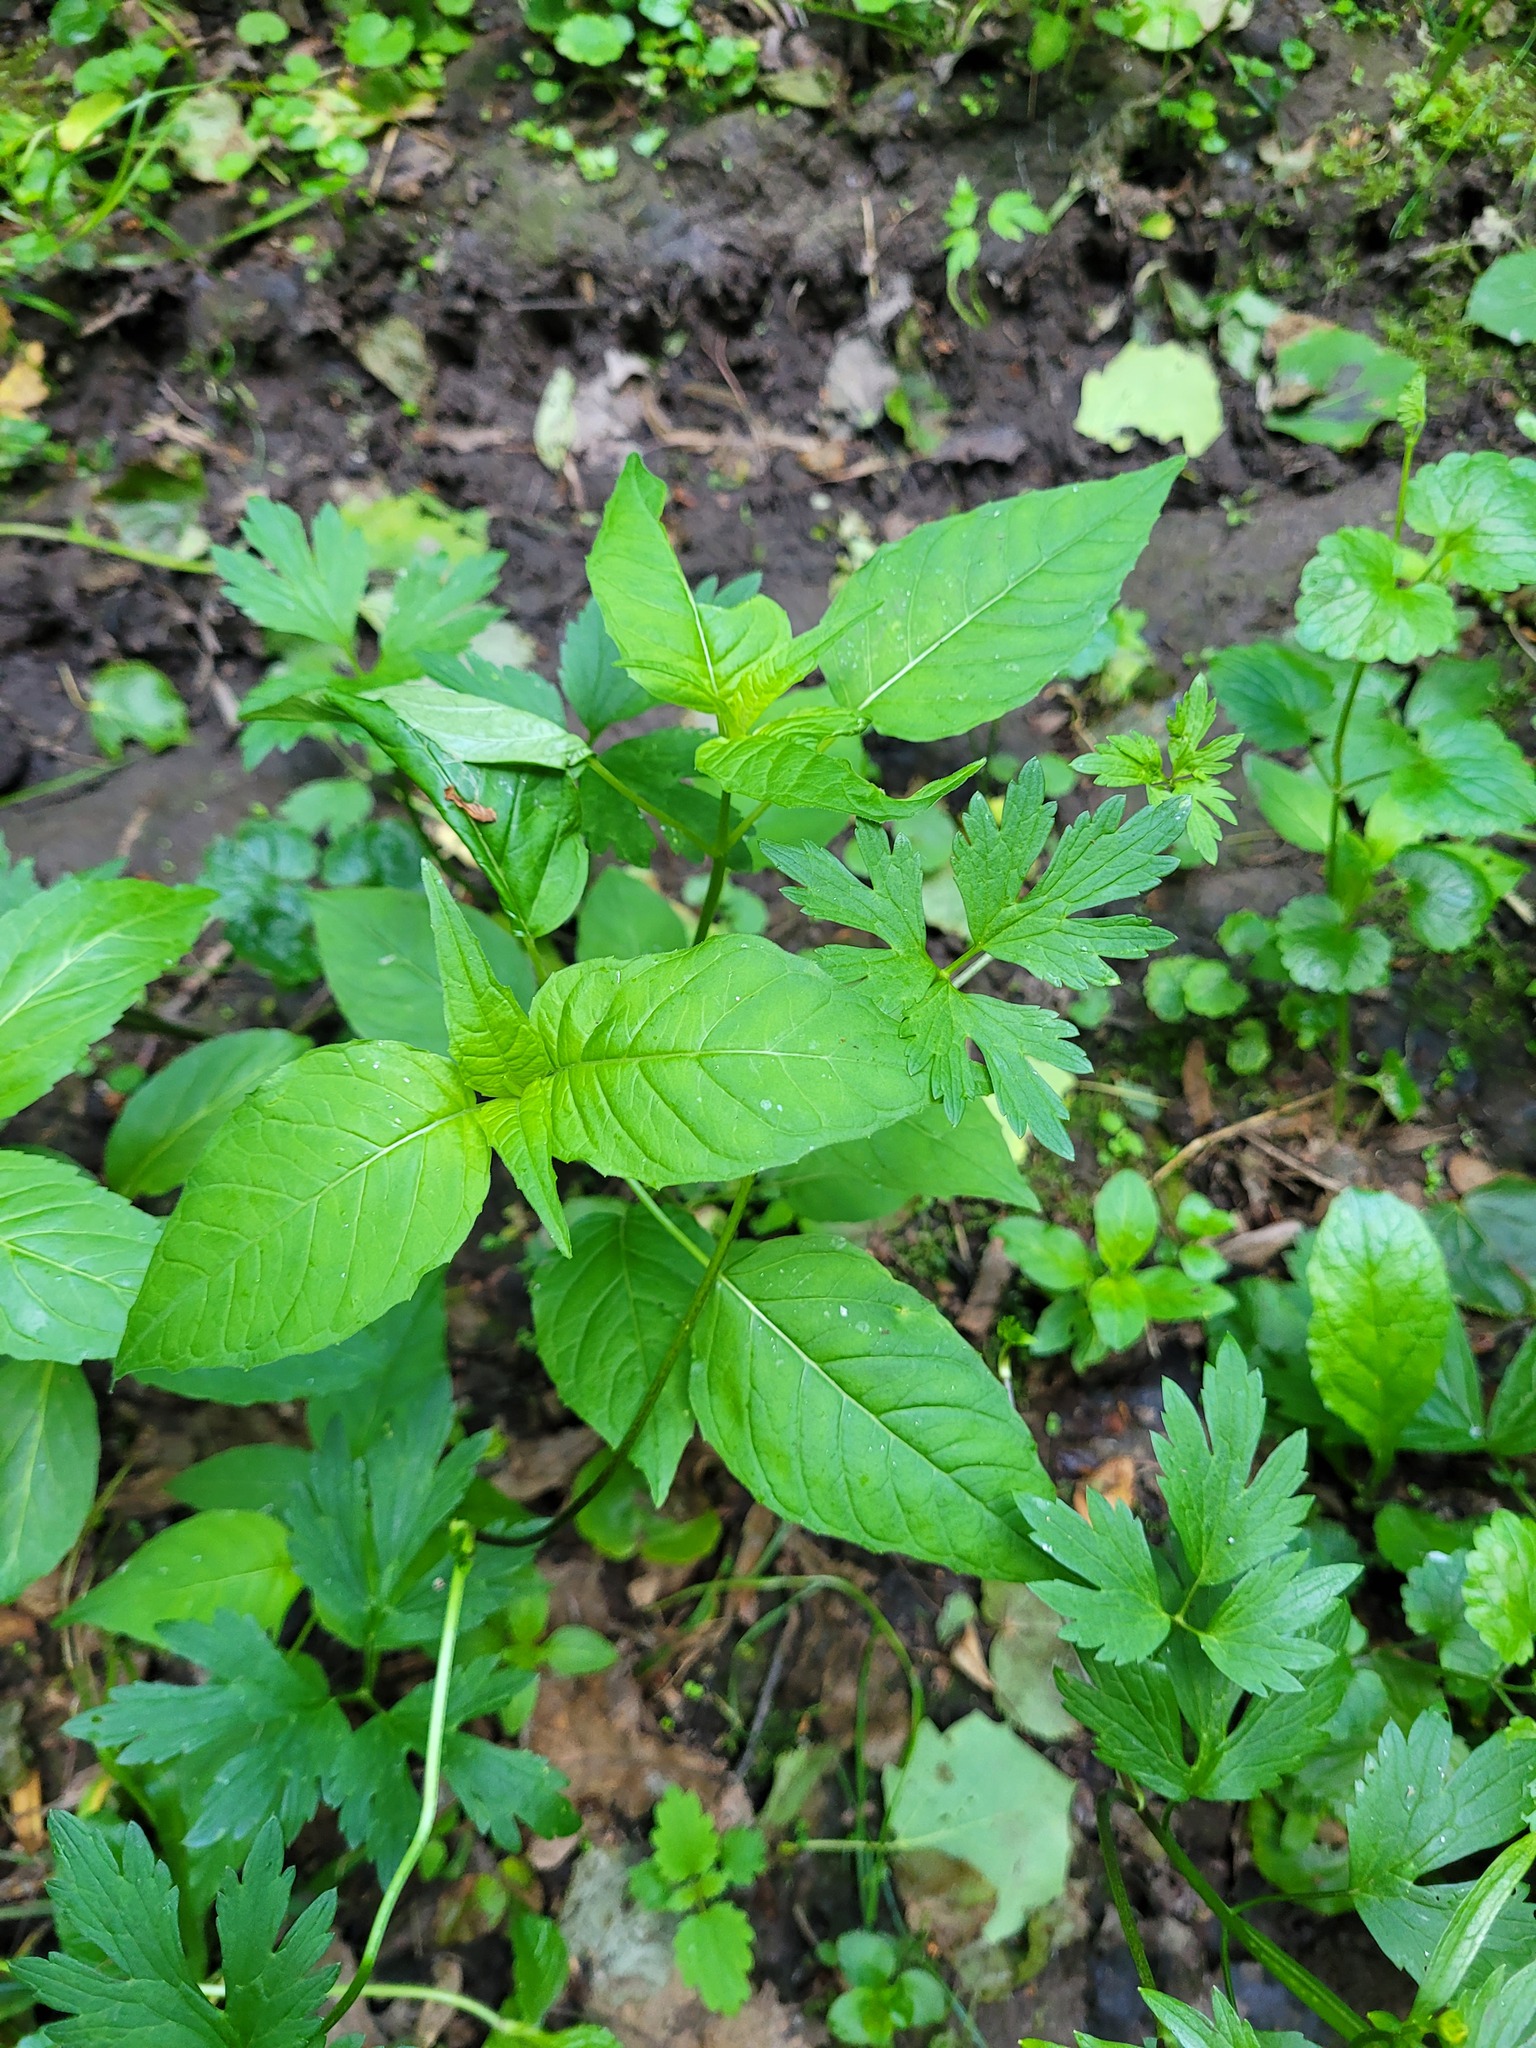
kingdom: Plantae
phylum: Tracheophyta
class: Magnoliopsida
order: Myrtales
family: Onagraceae
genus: Circaea
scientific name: Circaea lutetiana
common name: Enchanter's-nightshade
